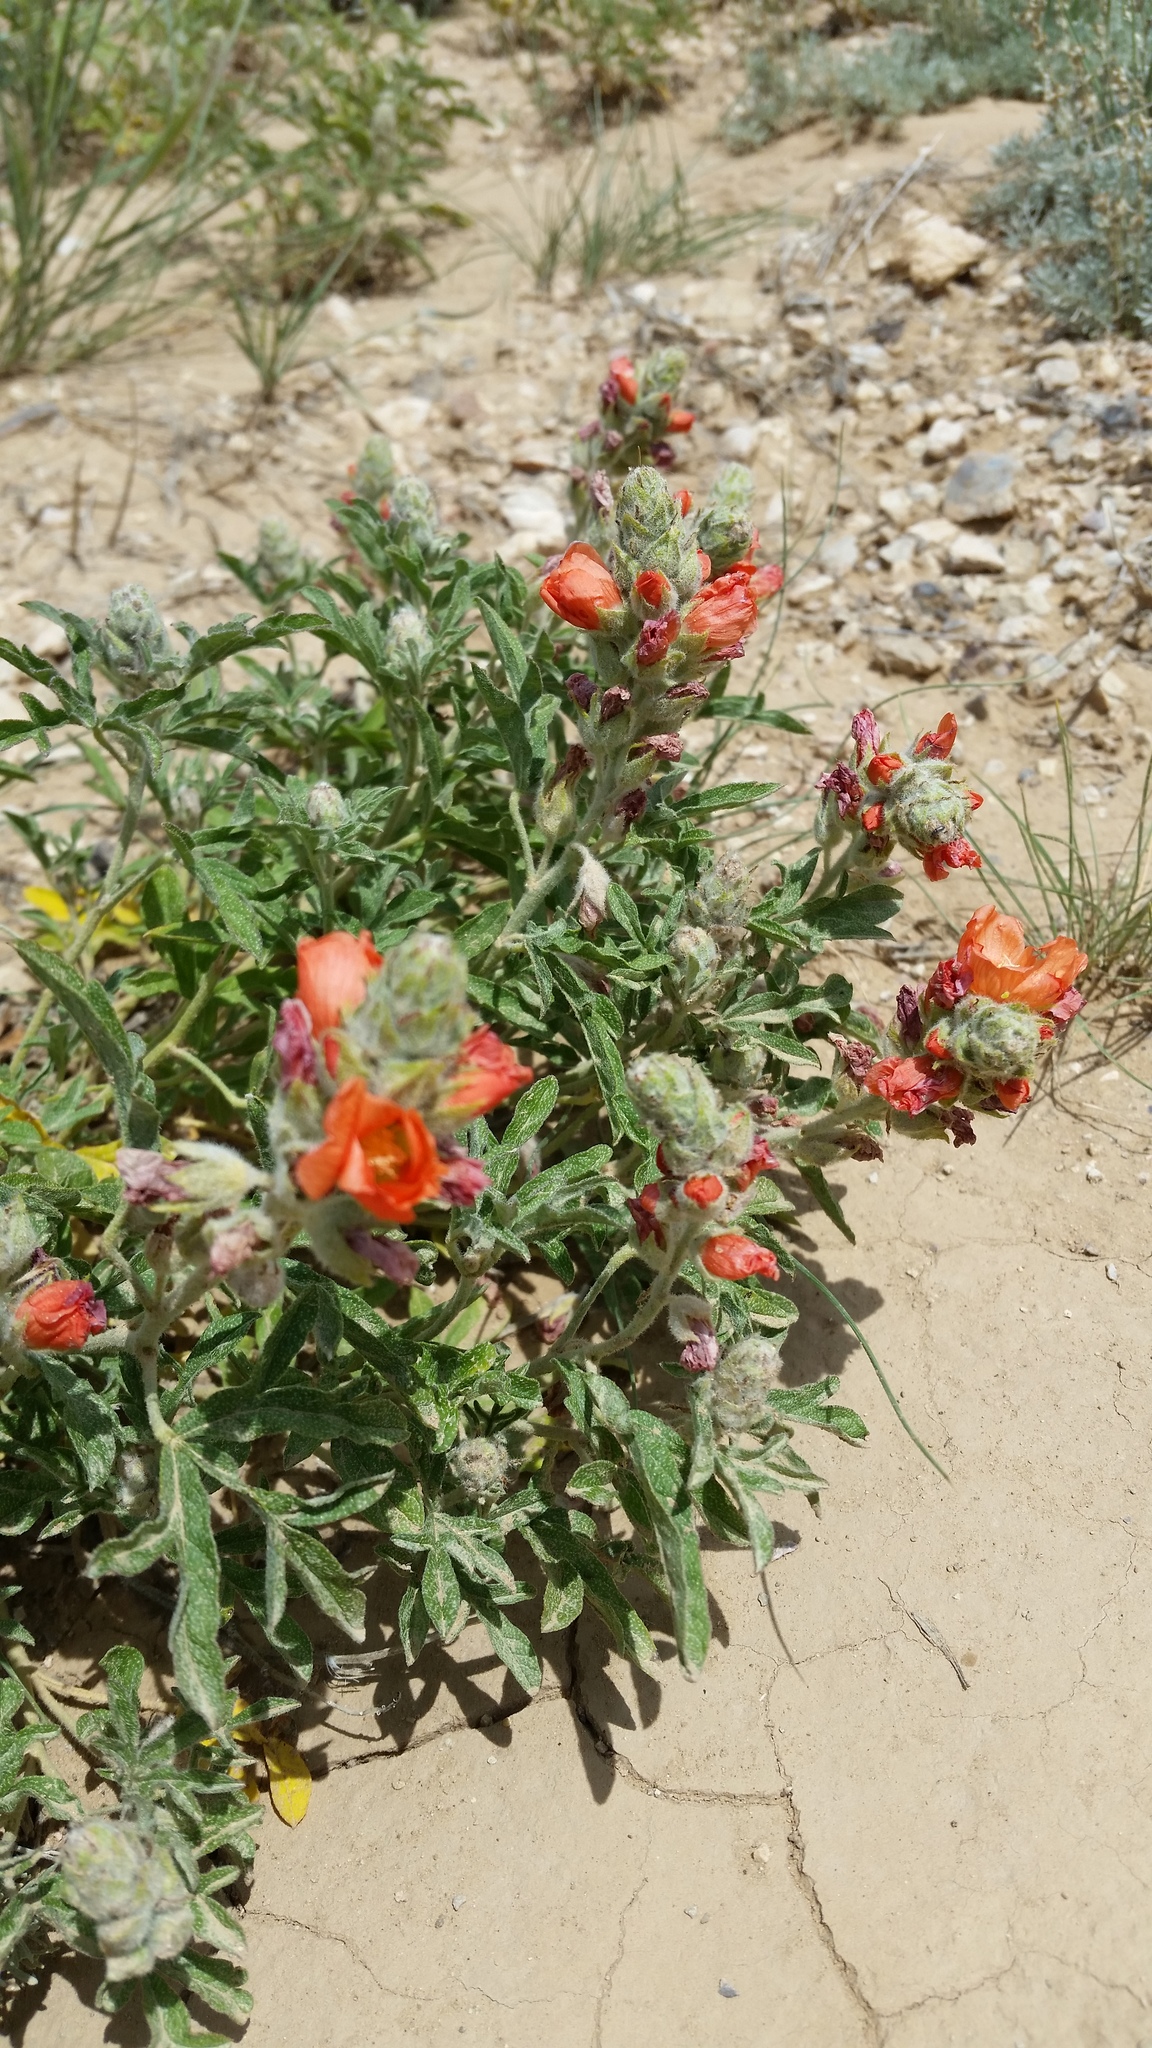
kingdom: Plantae
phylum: Tracheophyta
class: Magnoliopsida
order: Malvales
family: Malvaceae
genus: Sphaeralcea
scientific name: Sphaeralcea coccinea
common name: Moss-rose
